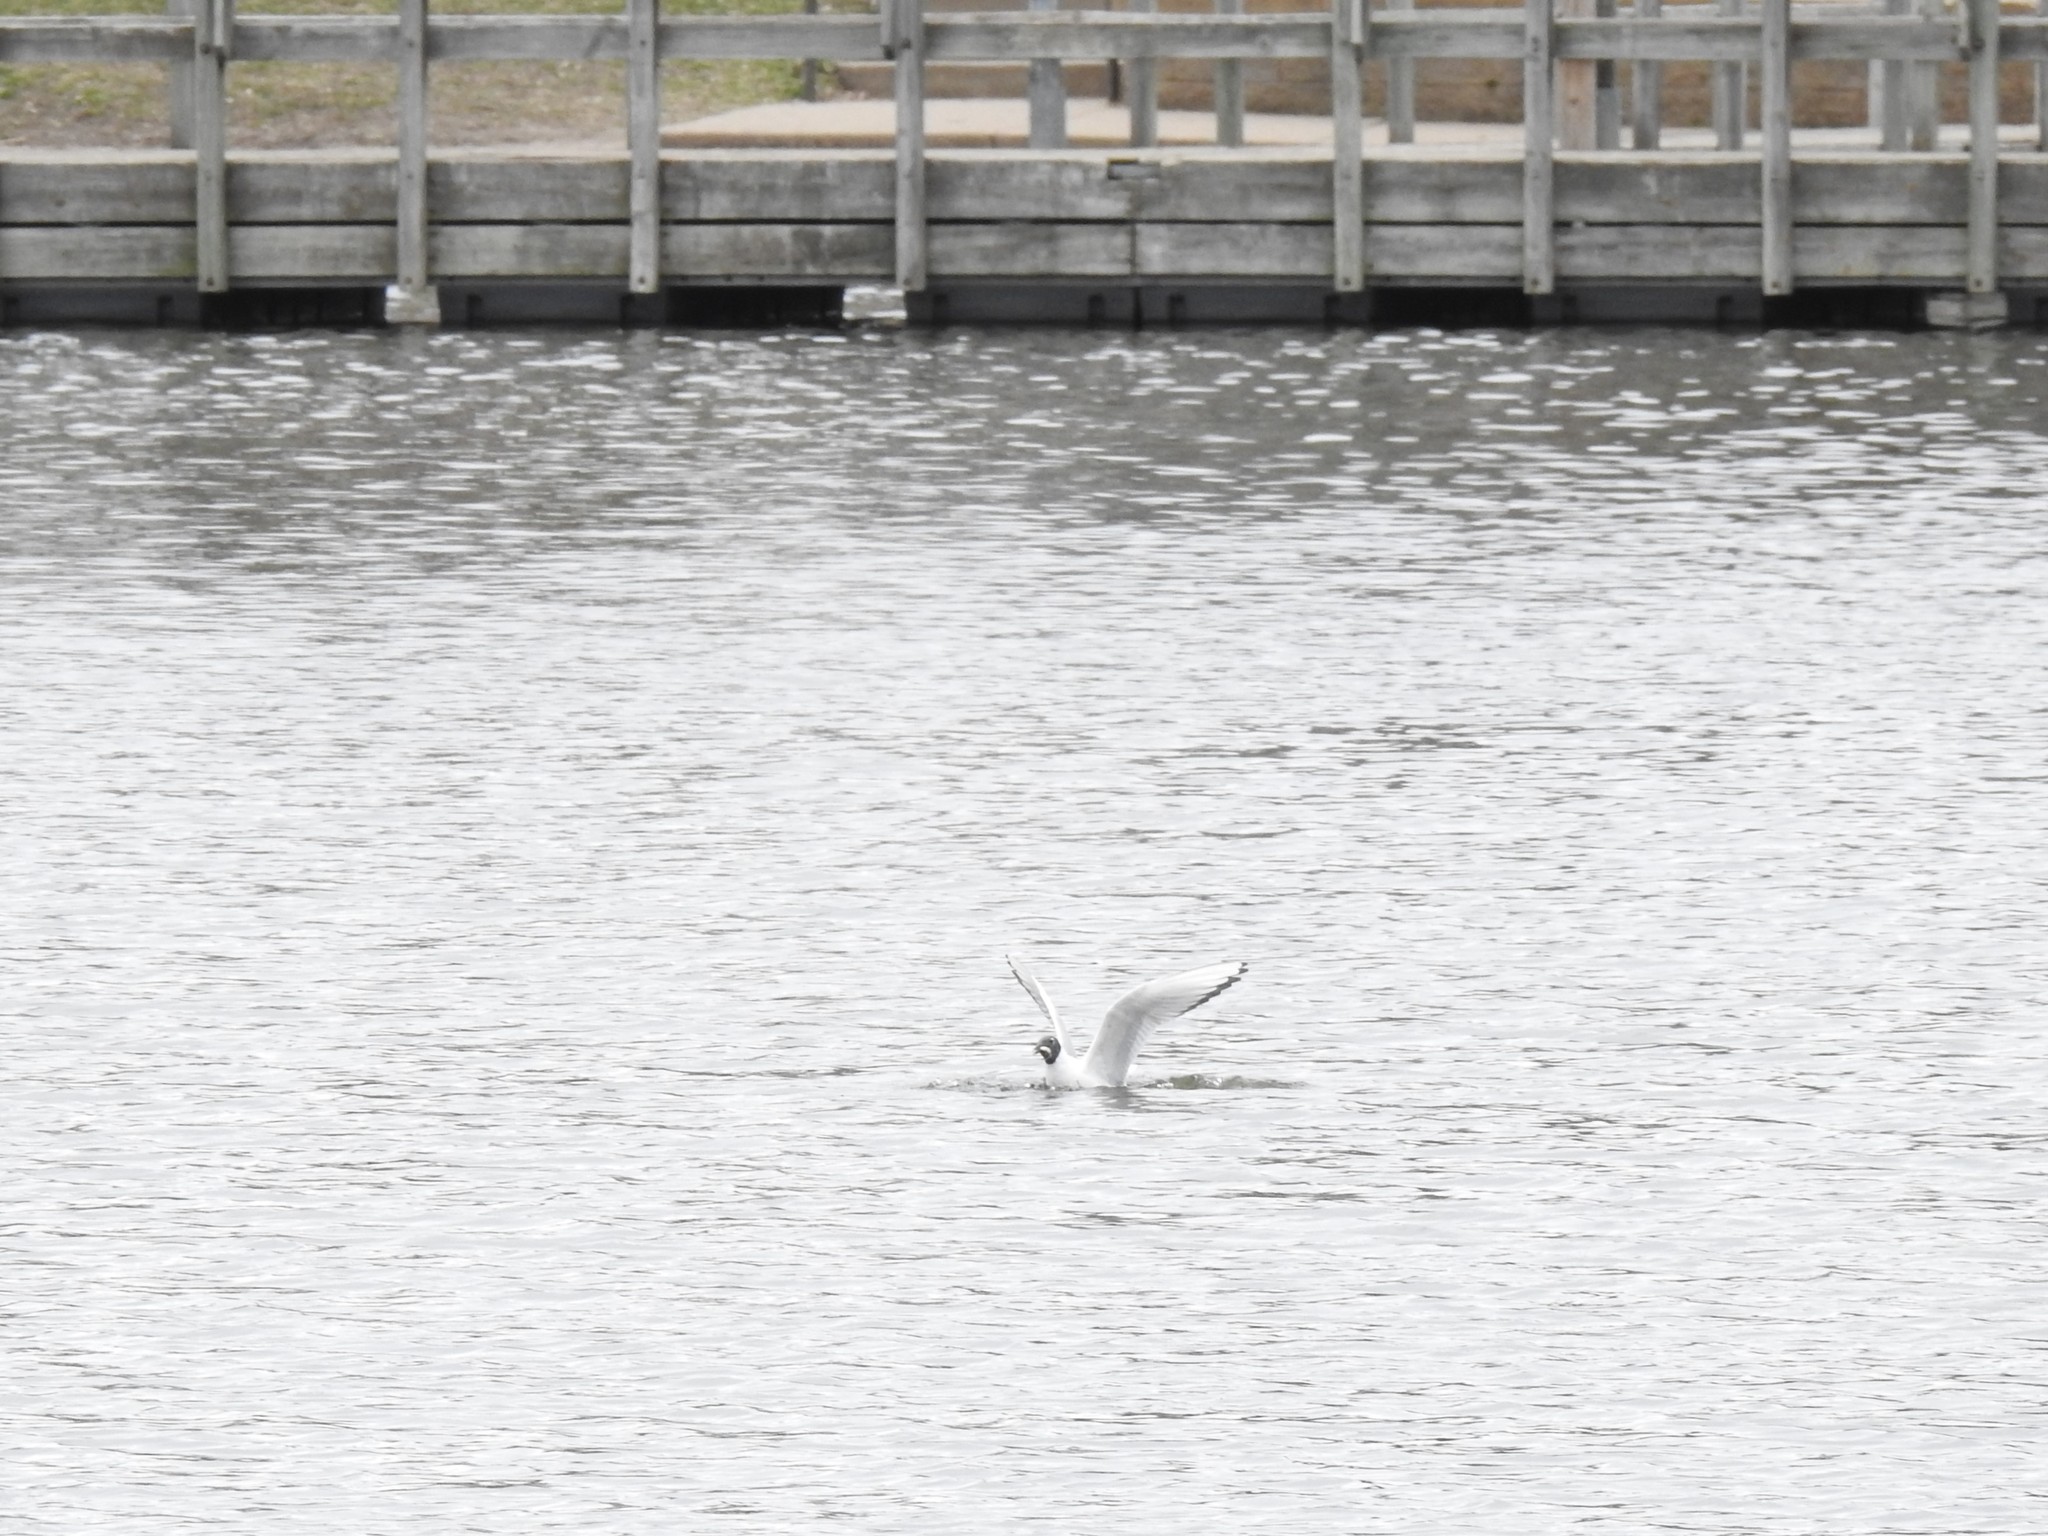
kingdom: Animalia
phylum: Chordata
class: Aves
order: Charadriiformes
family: Laridae
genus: Chroicocephalus
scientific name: Chroicocephalus philadelphia
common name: Bonaparte's gull
